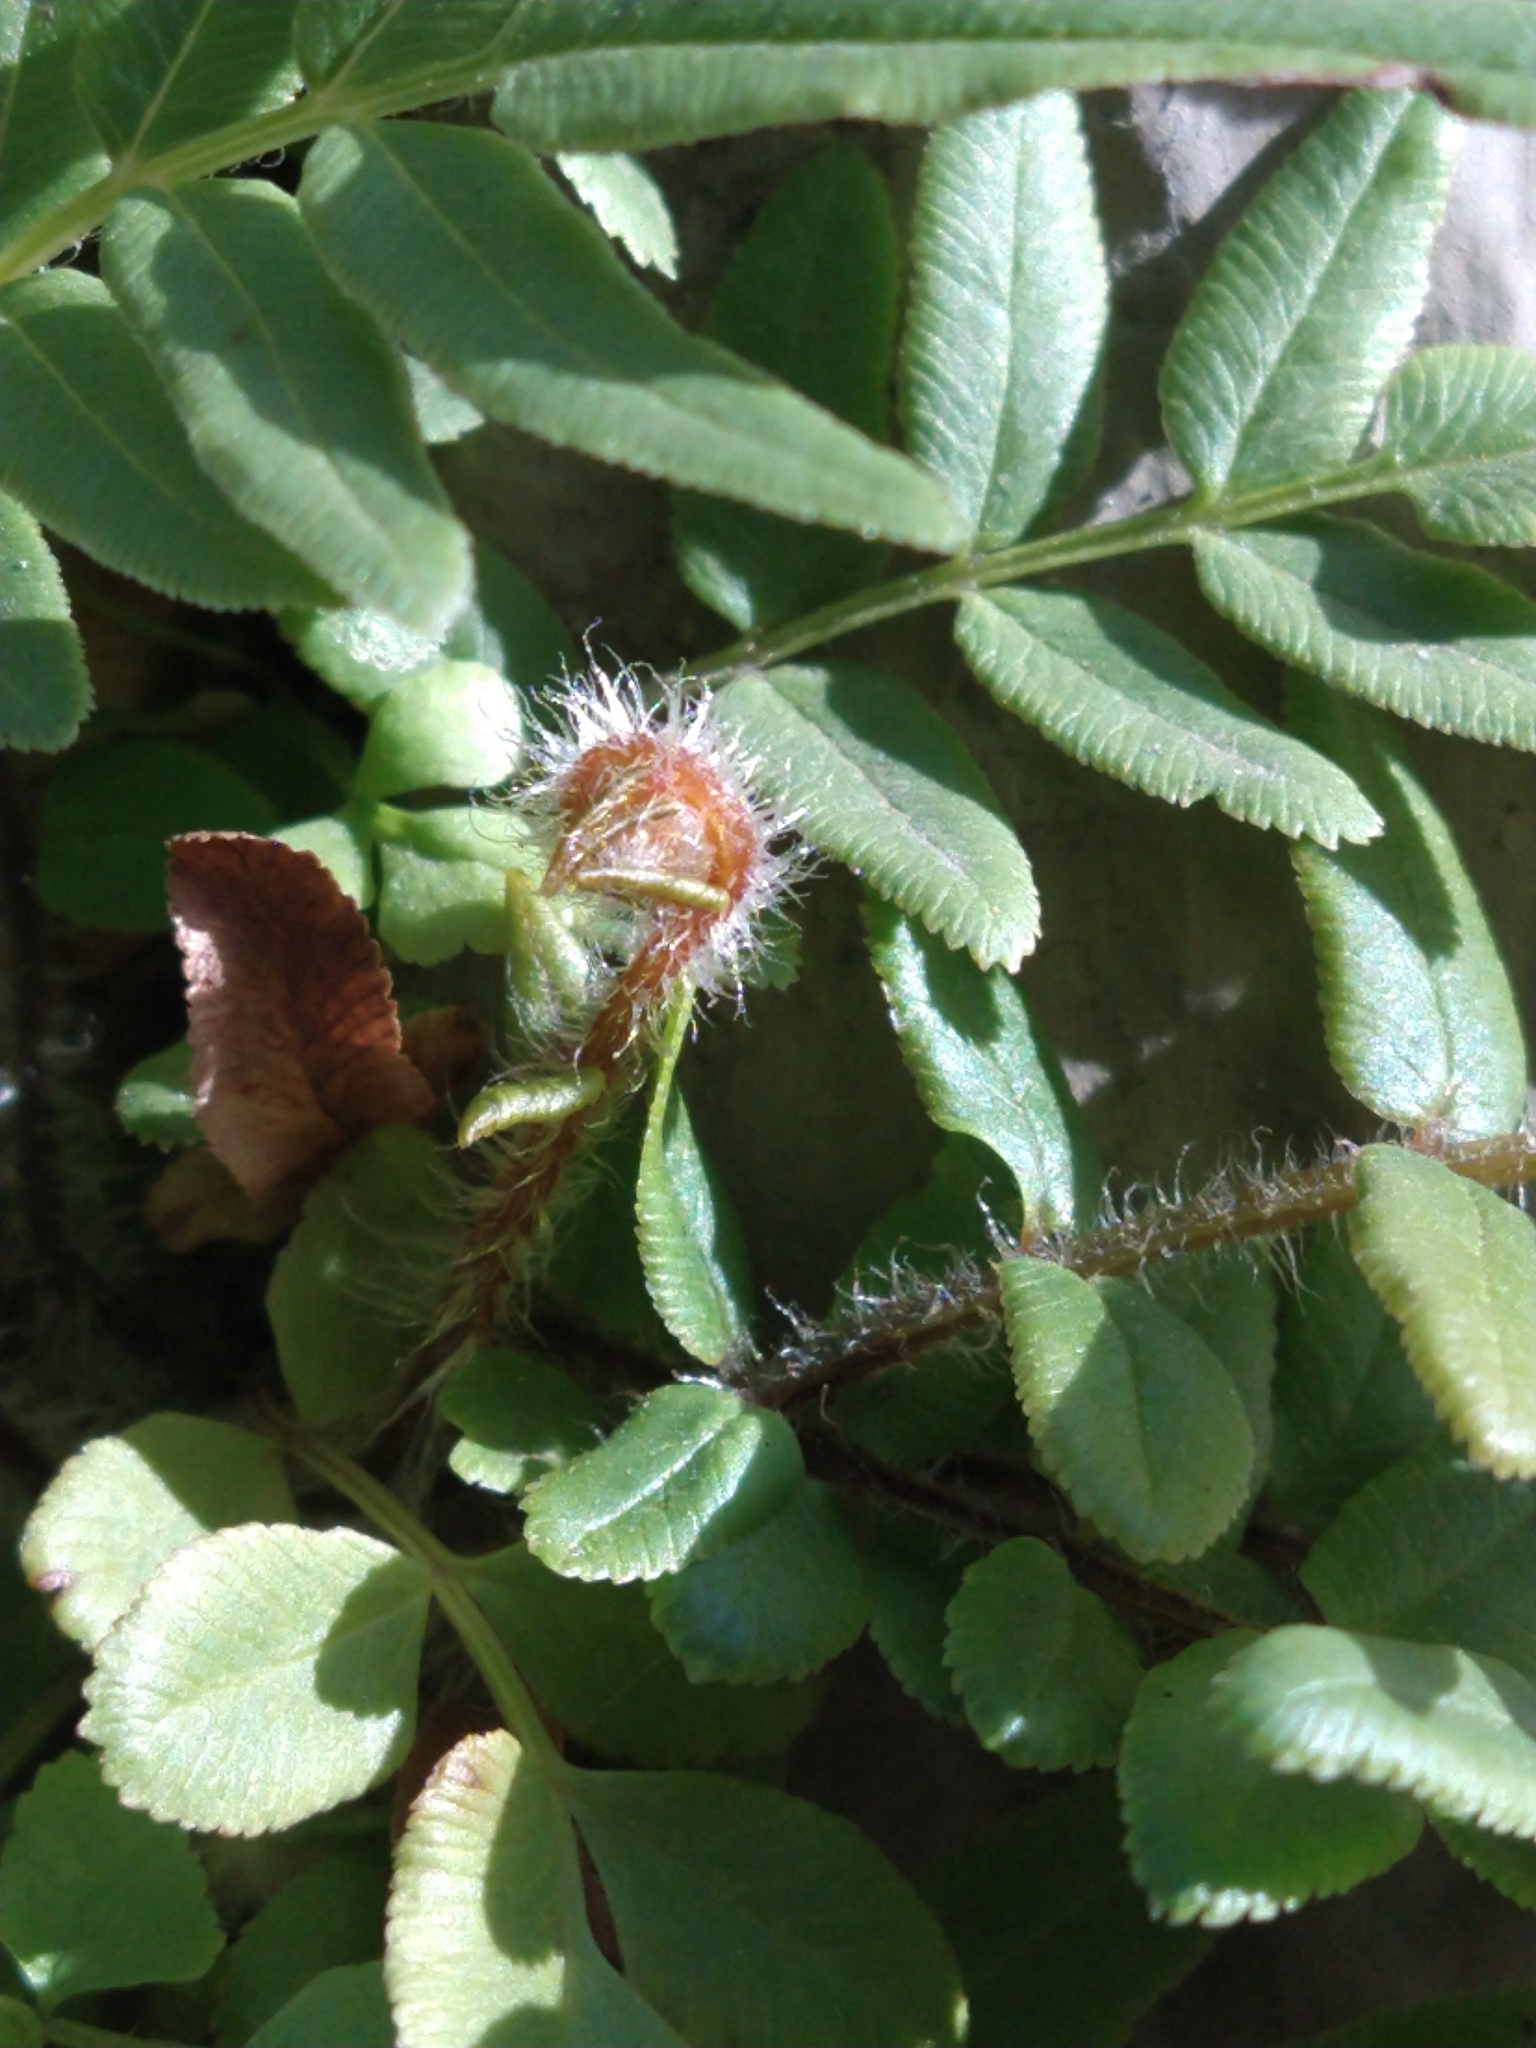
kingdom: Plantae
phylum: Tracheophyta
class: Polypodiopsida
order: Polypodiales
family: Pteridaceae
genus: Pteris
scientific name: Pteris vittata
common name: Ladder brake
